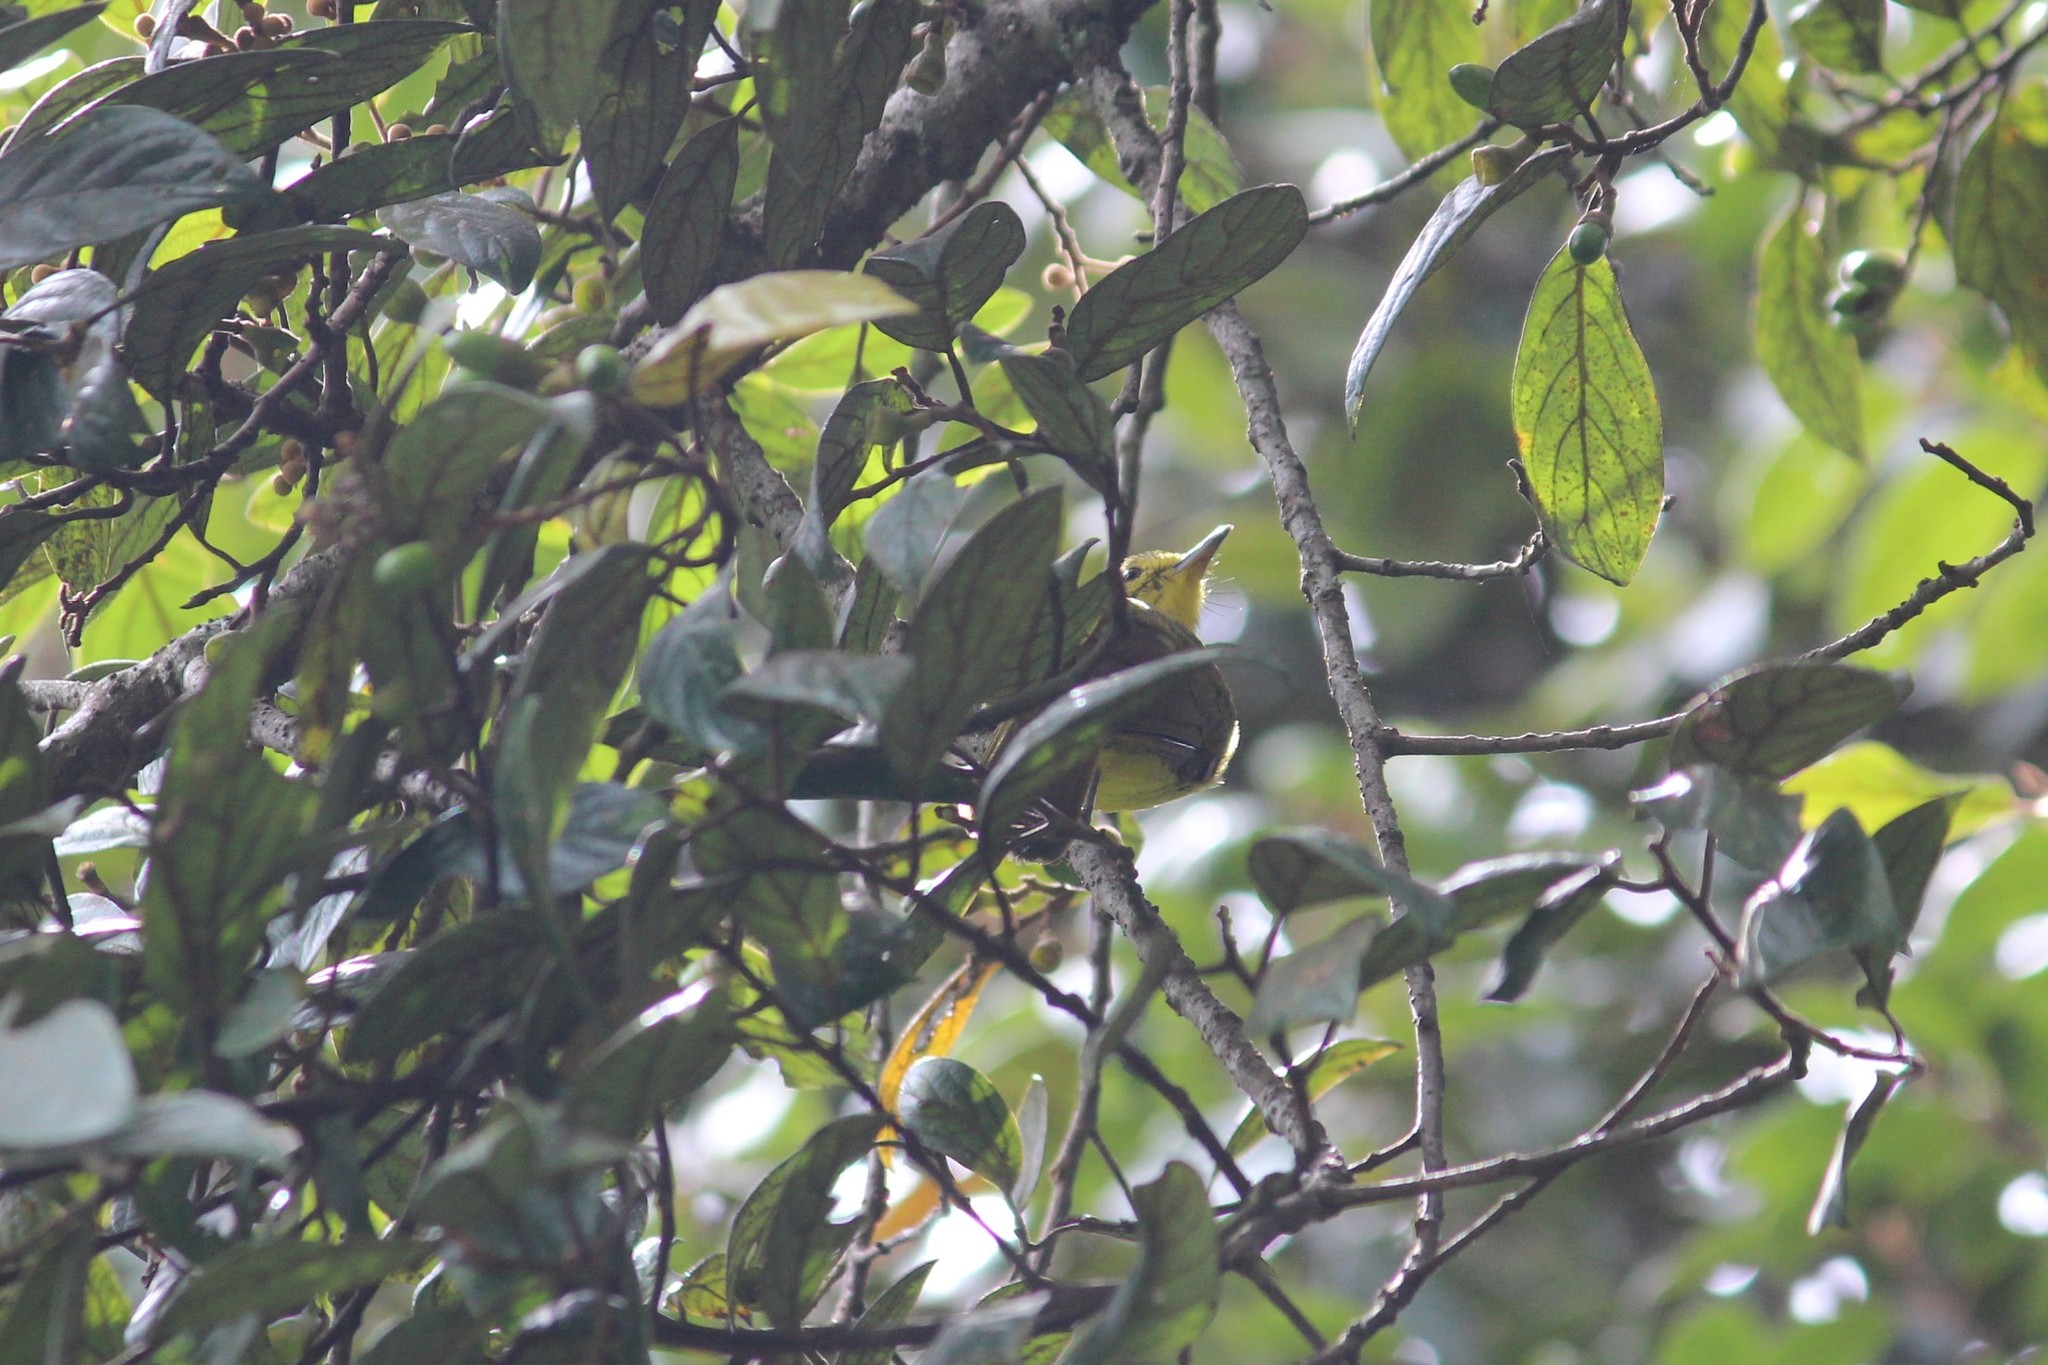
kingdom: Animalia
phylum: Chordata
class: Aves
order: Passeriformes
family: Pycnonotidae
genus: Acritillas
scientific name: Acritillas indica
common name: Yellow-browed bulbul
